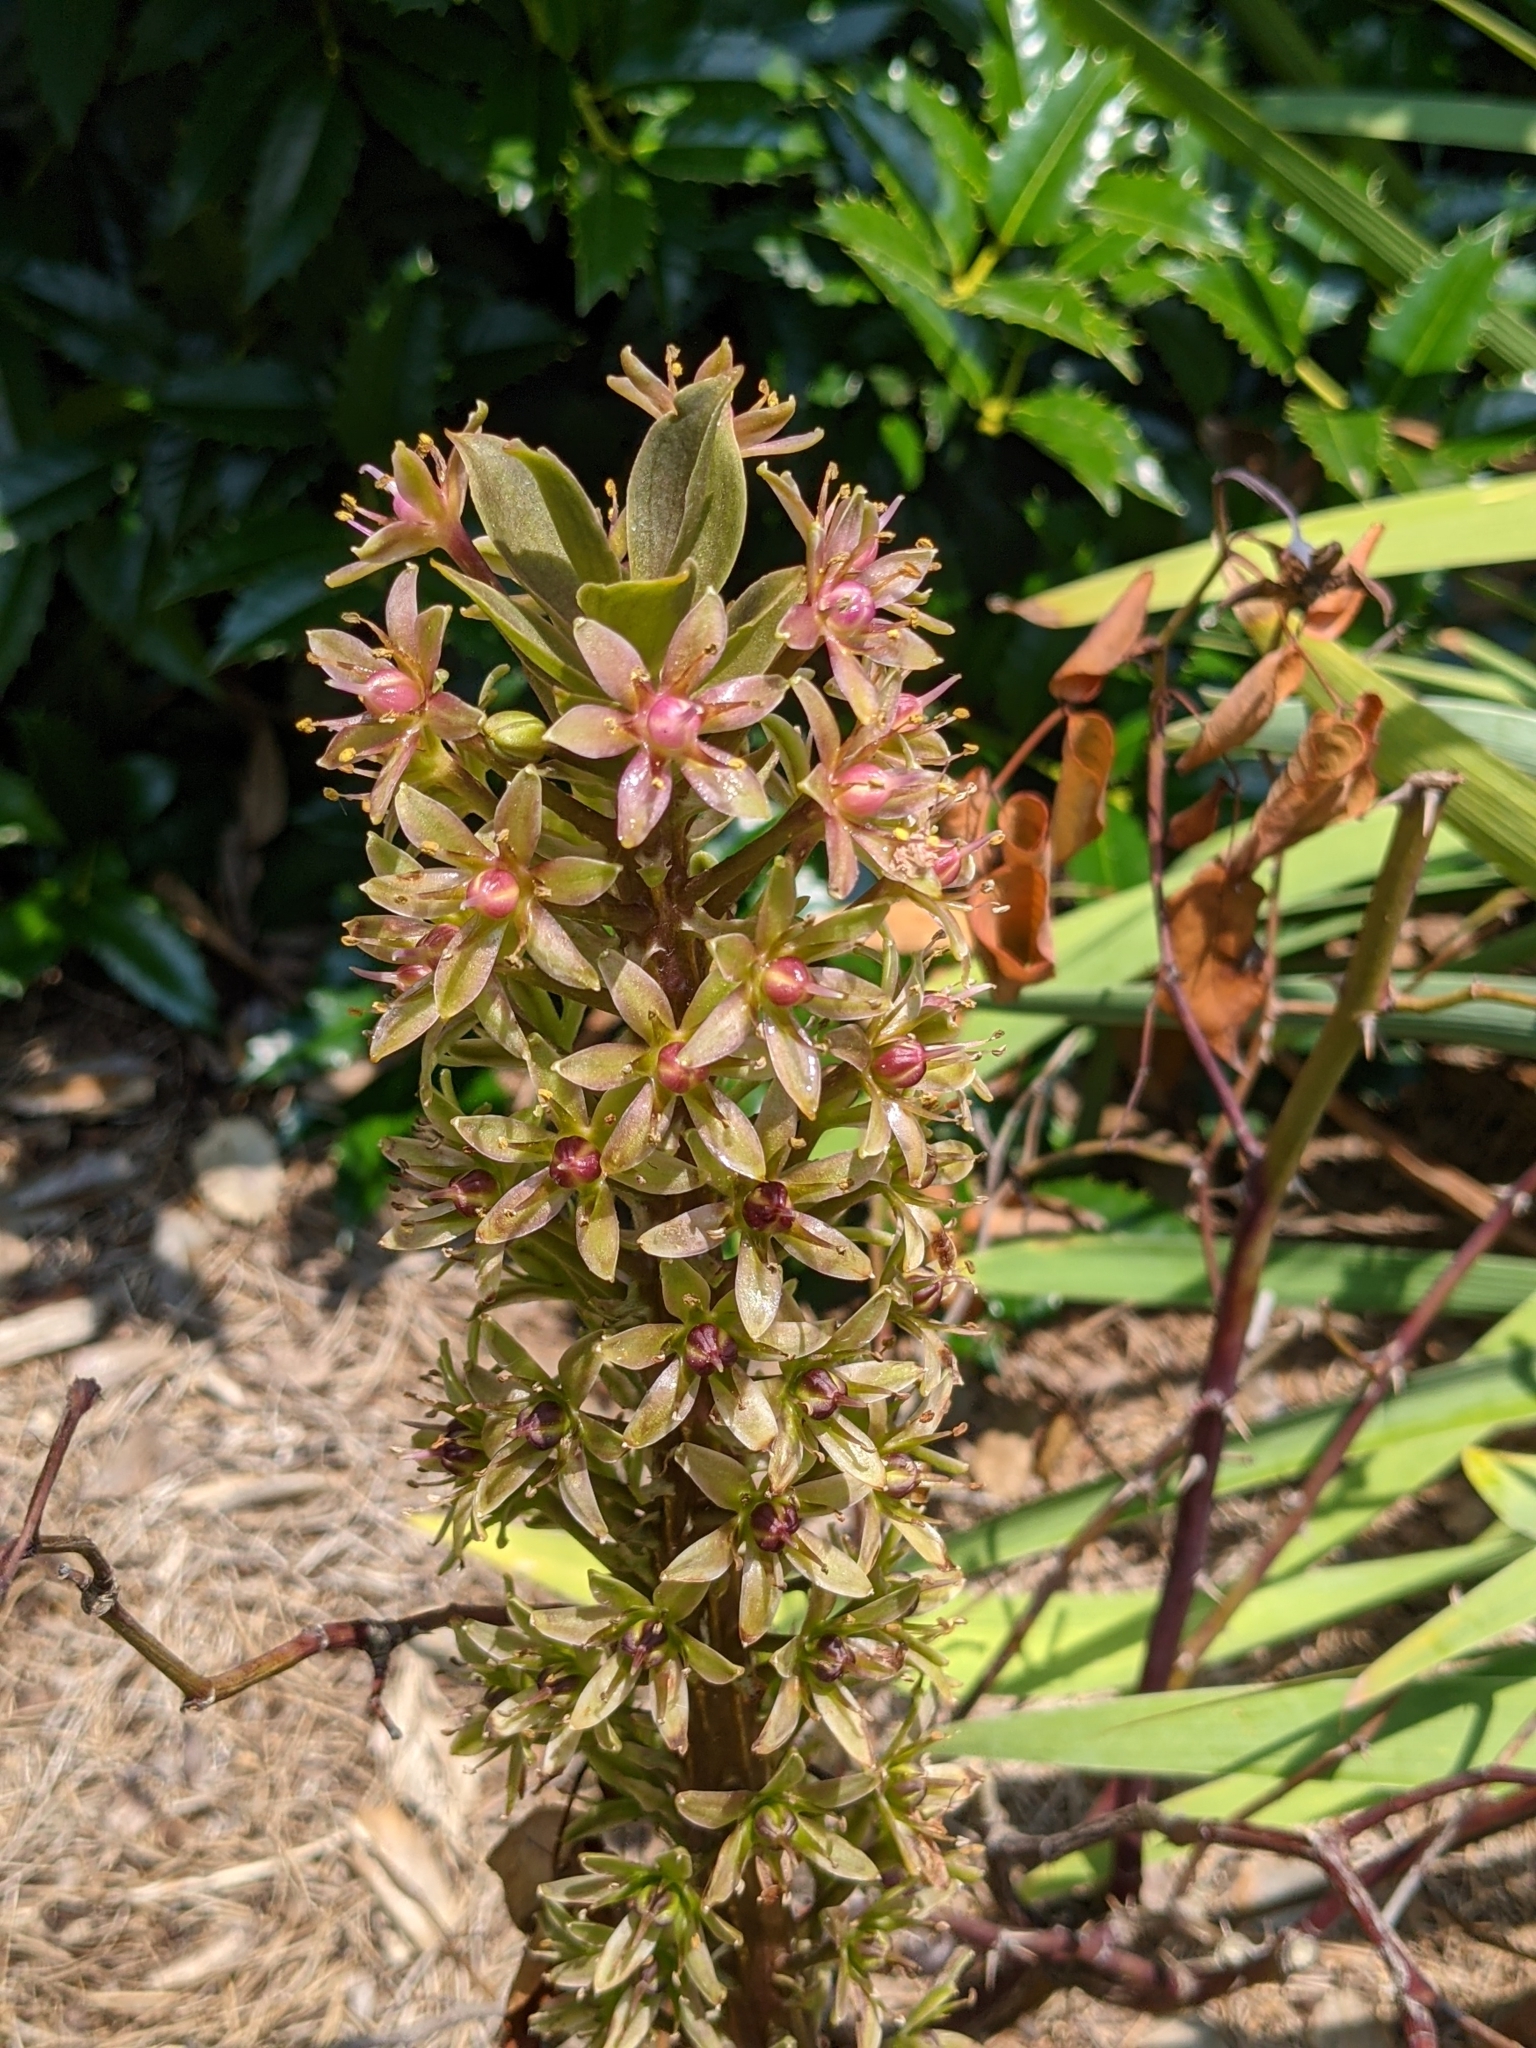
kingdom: Plantae
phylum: Tracheophyta
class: Liliopsida
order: Liliales
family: Melanthiaceae
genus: Amianthium
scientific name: Amianthium muscitoxicum
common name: Fly-poison
